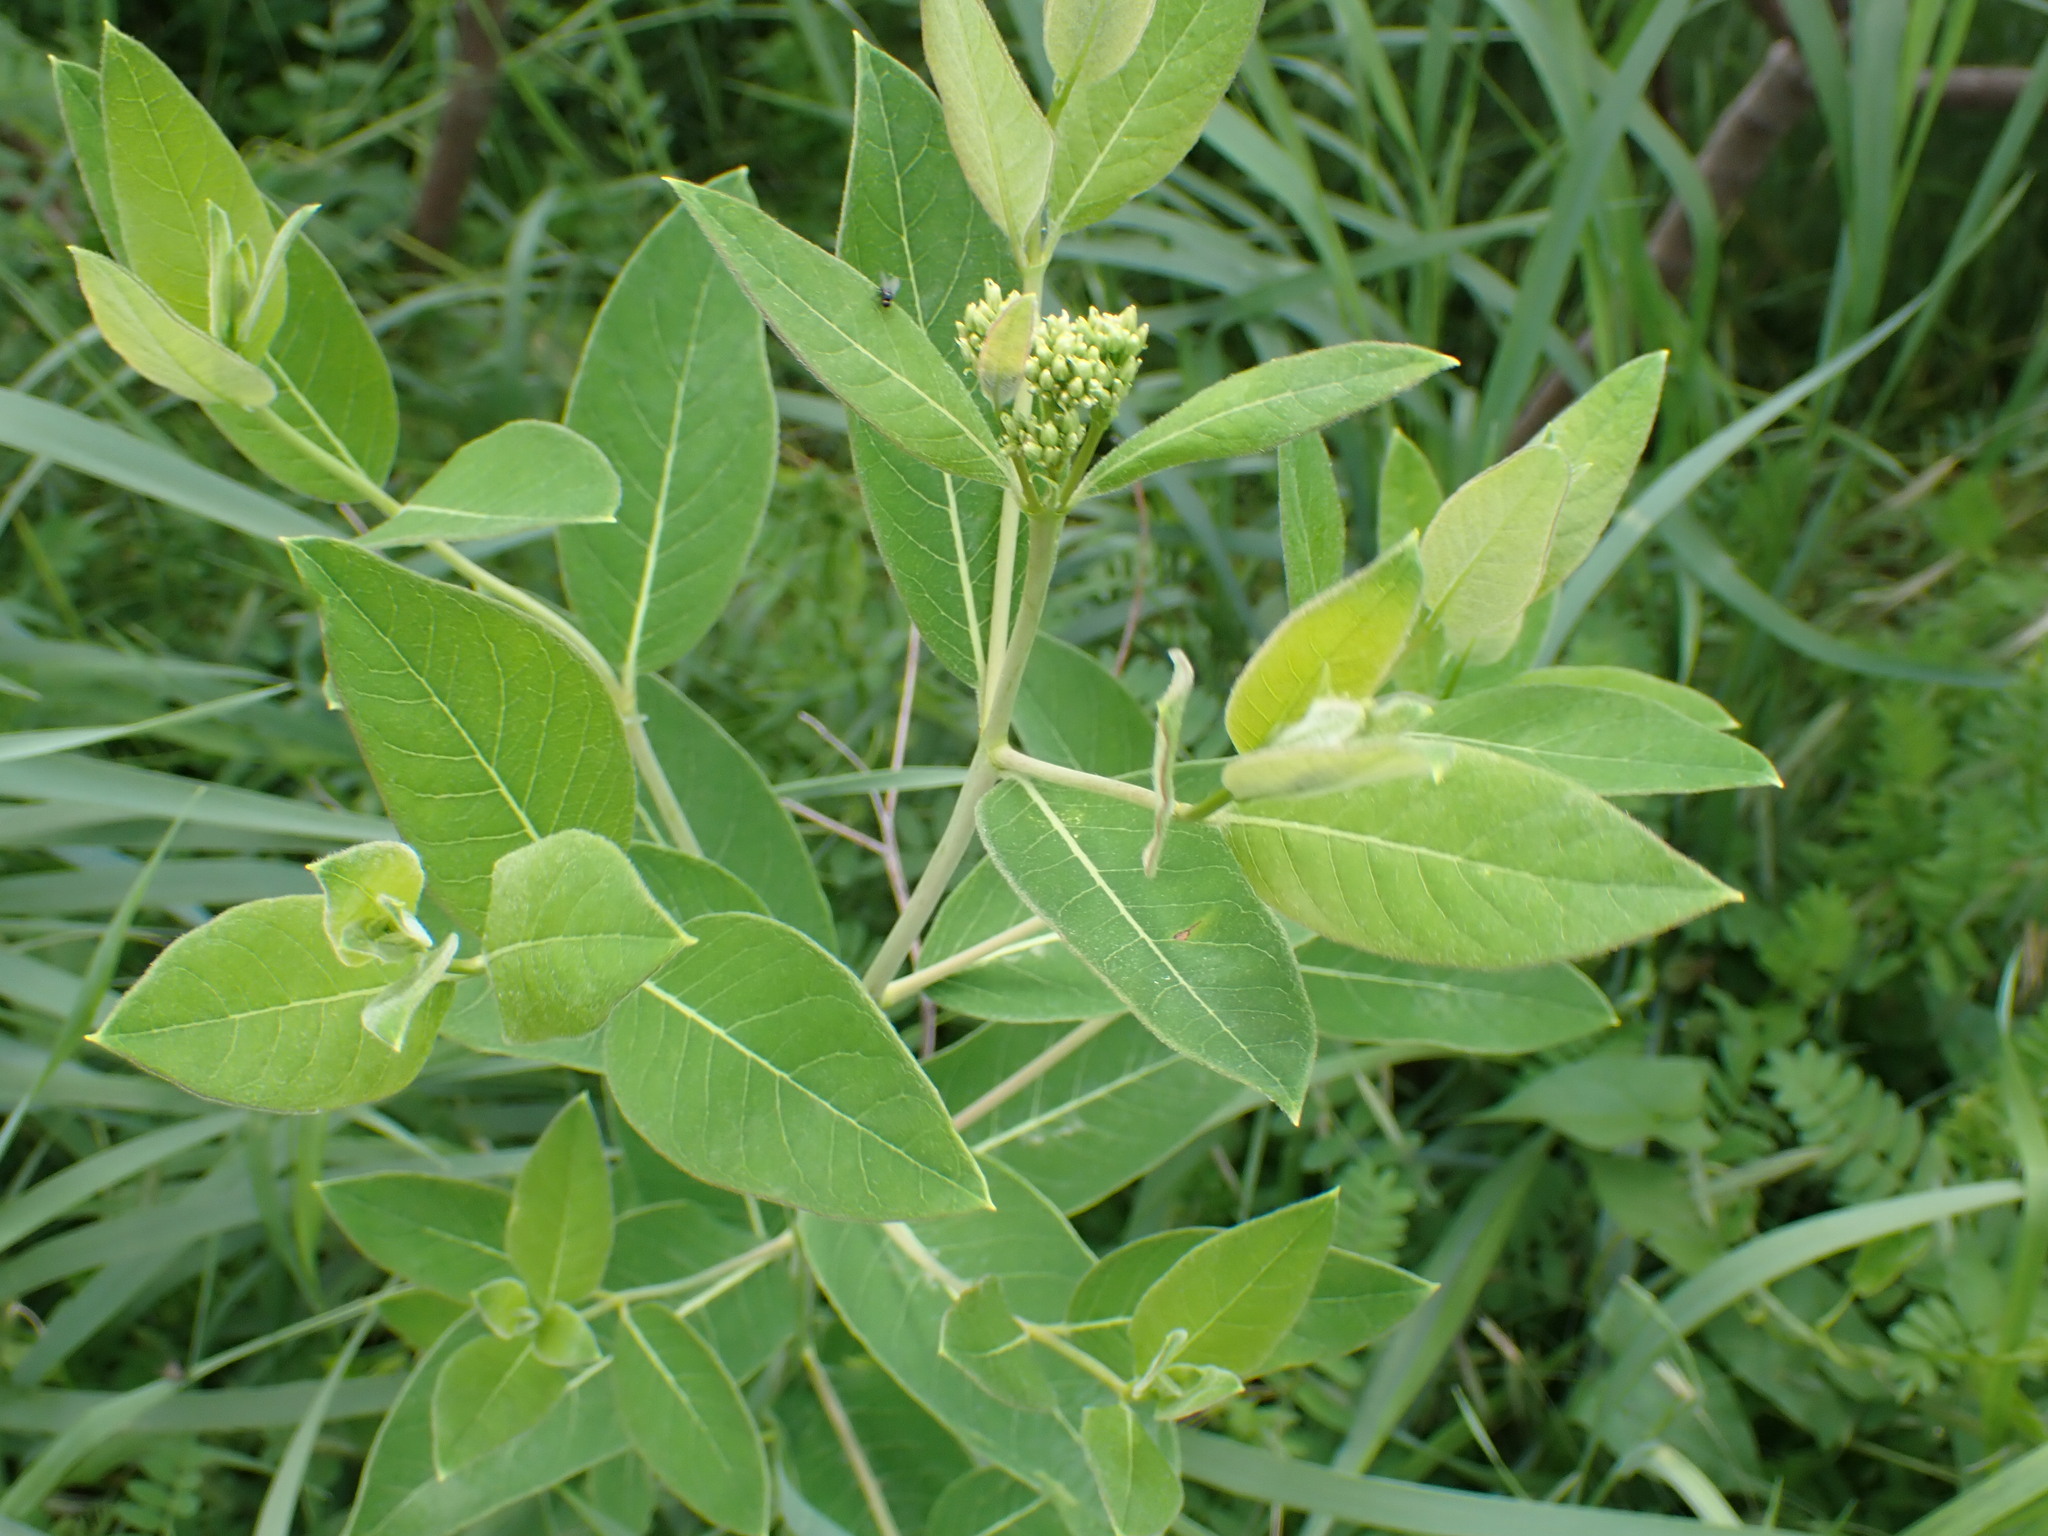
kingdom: Plantae
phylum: Tracheophyta
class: Magnoliopsida
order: Gentianales
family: Apocynaceae
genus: Apocynum
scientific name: Apocynum cannabinum
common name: Hemp dogbane
